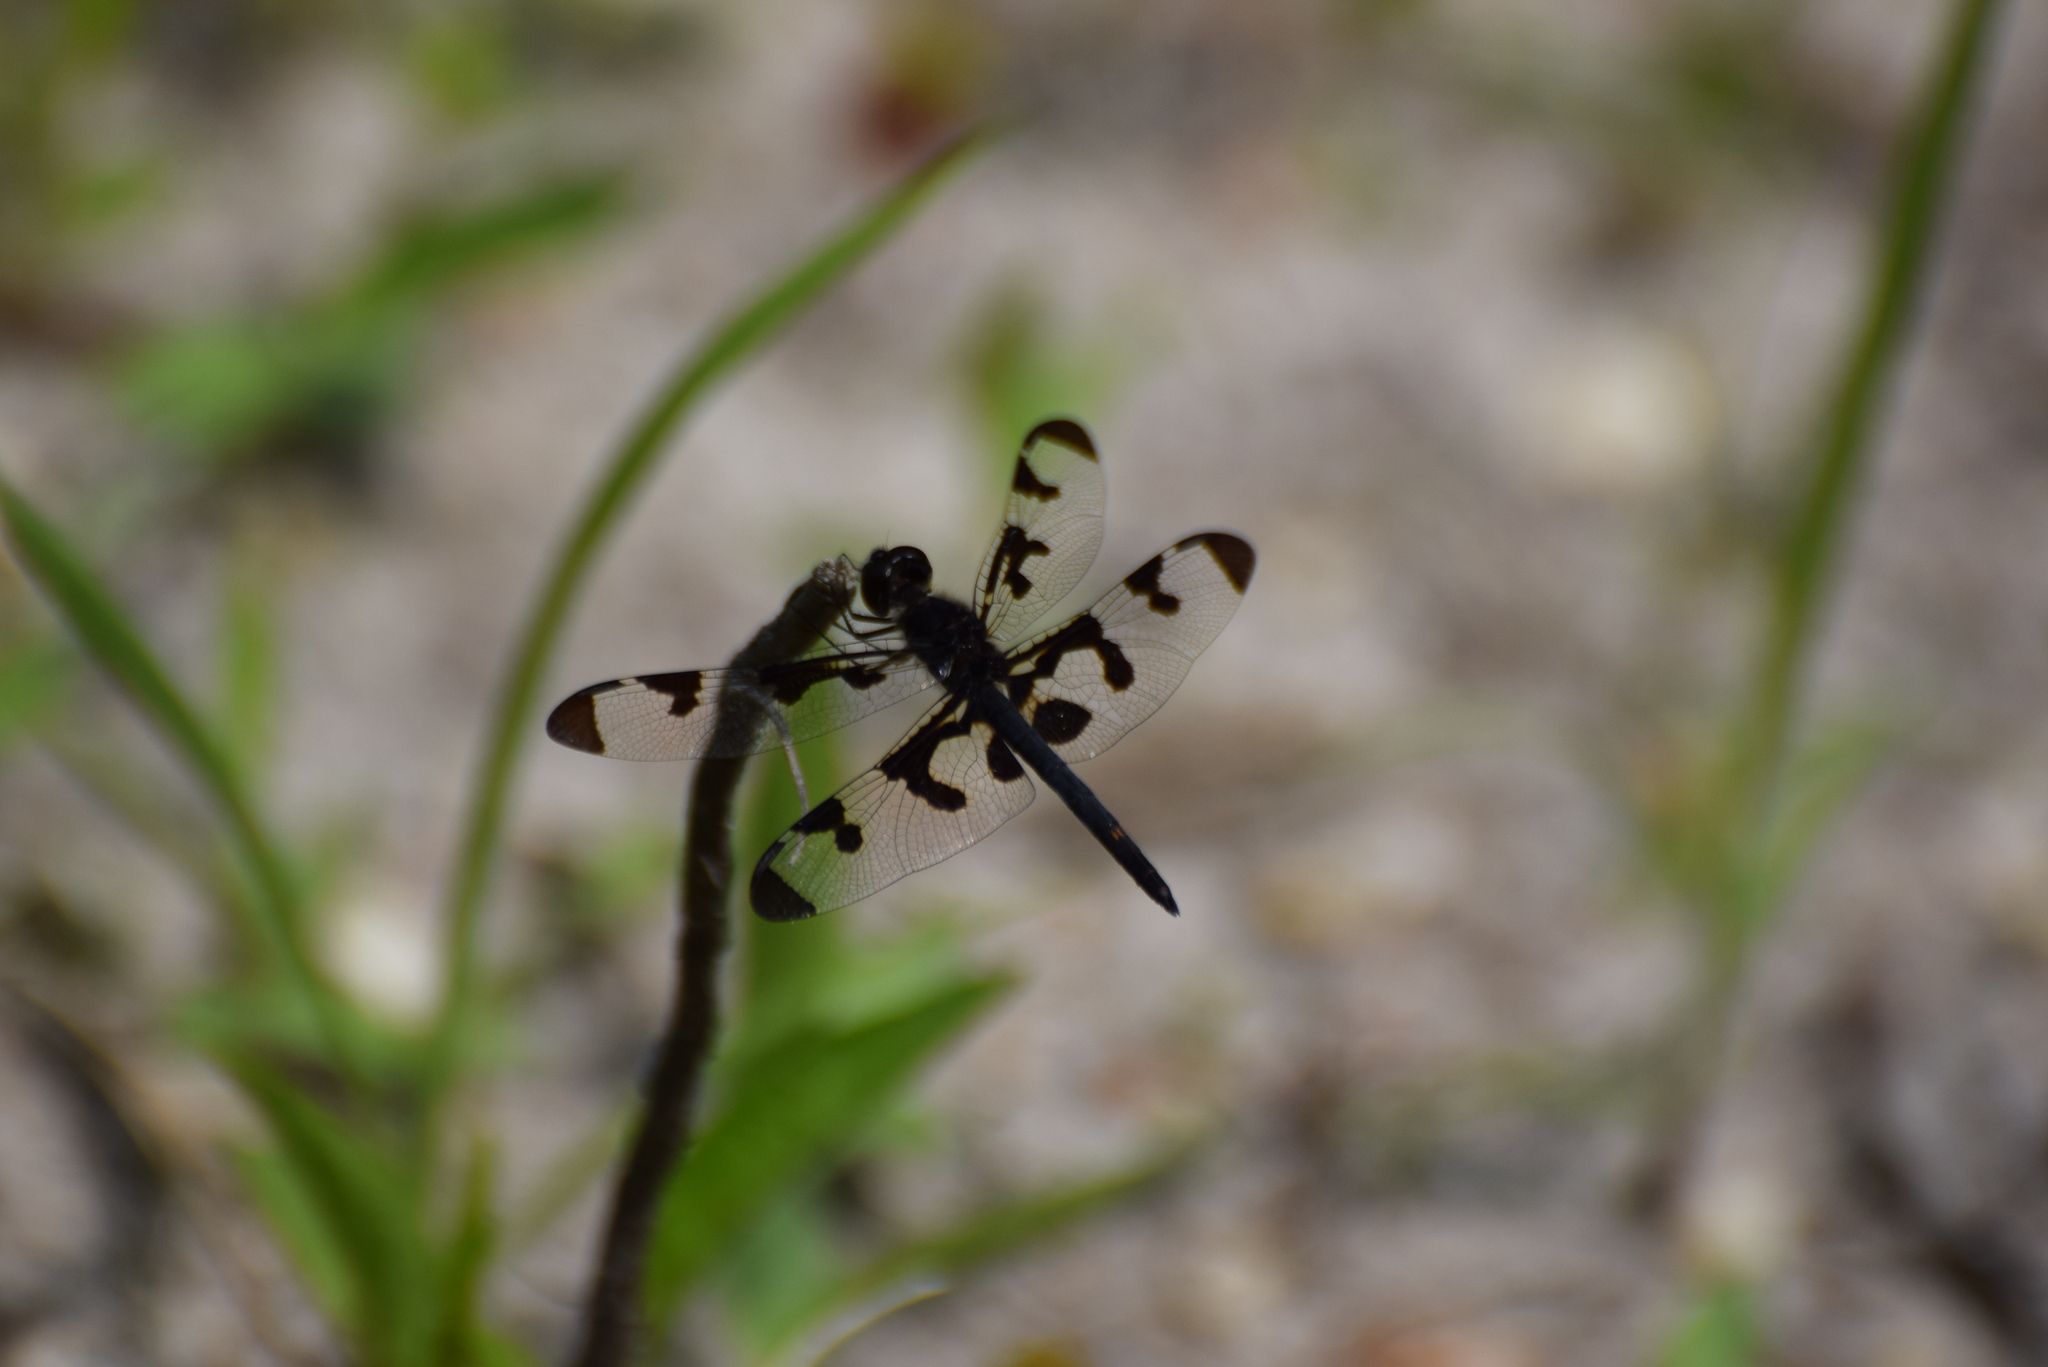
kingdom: Animalia
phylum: Arthropoda
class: Insecta
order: Odonata
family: Libellulidae
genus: Celithemis
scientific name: Celithemis fasciata
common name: Banded pennant
